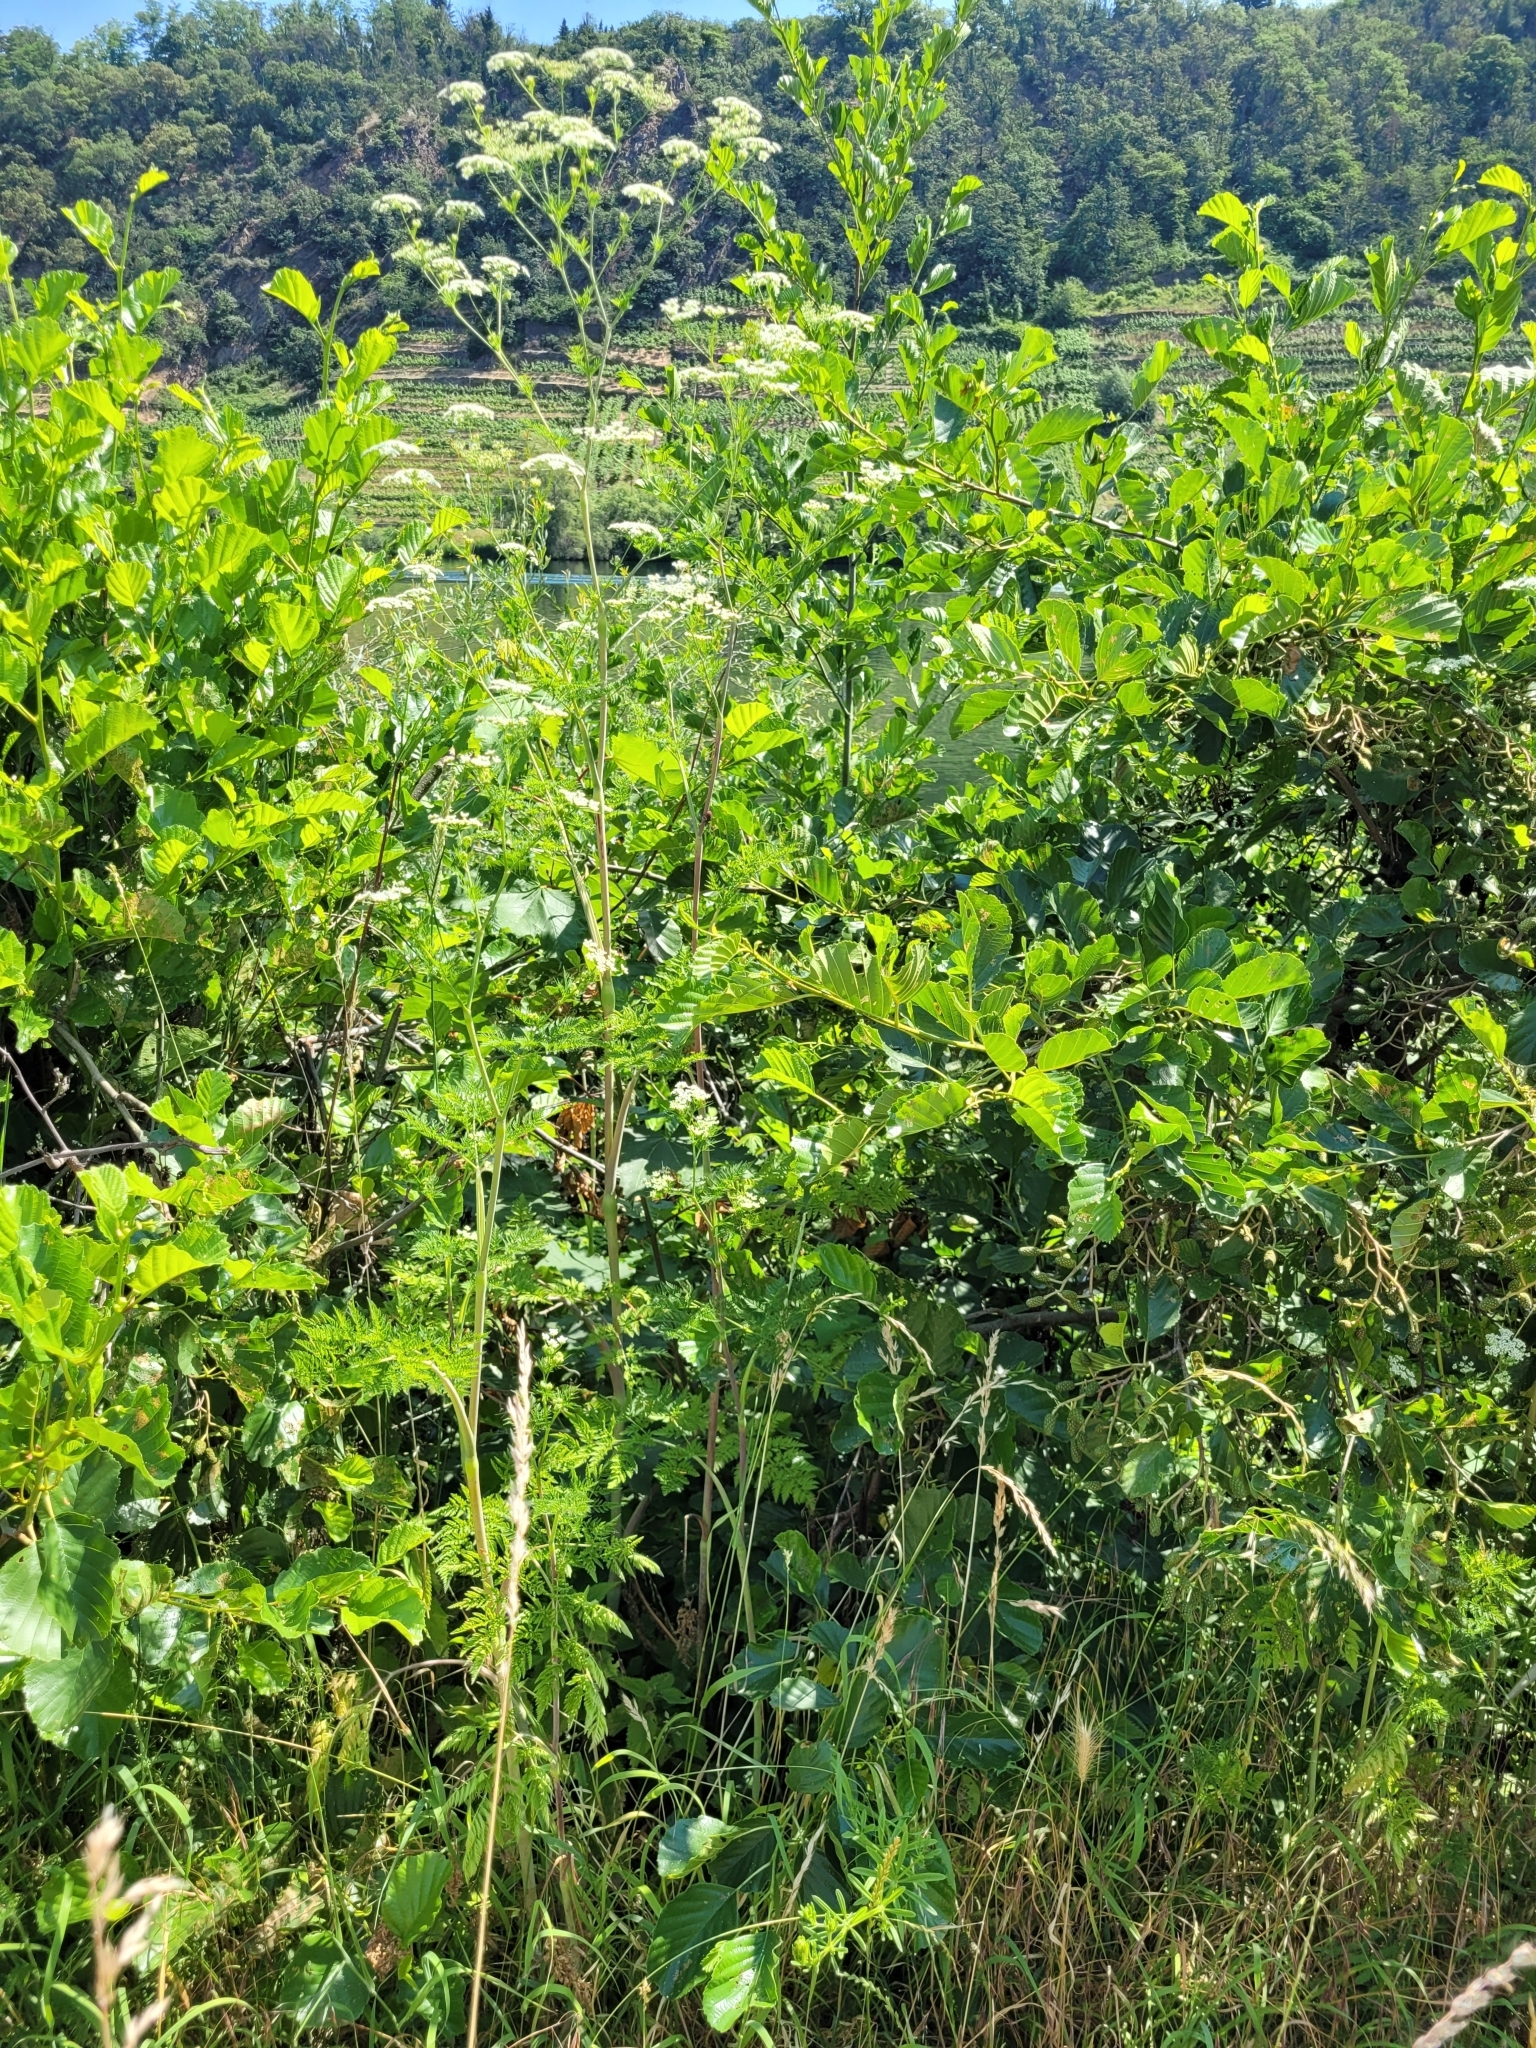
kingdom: Plantae
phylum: Tracheophyta
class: Magnoliopsida
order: Apiales
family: Apiaceae
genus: Chaerophyllum
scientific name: Chaerophyllum bulbosum
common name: Bulbous chervil
